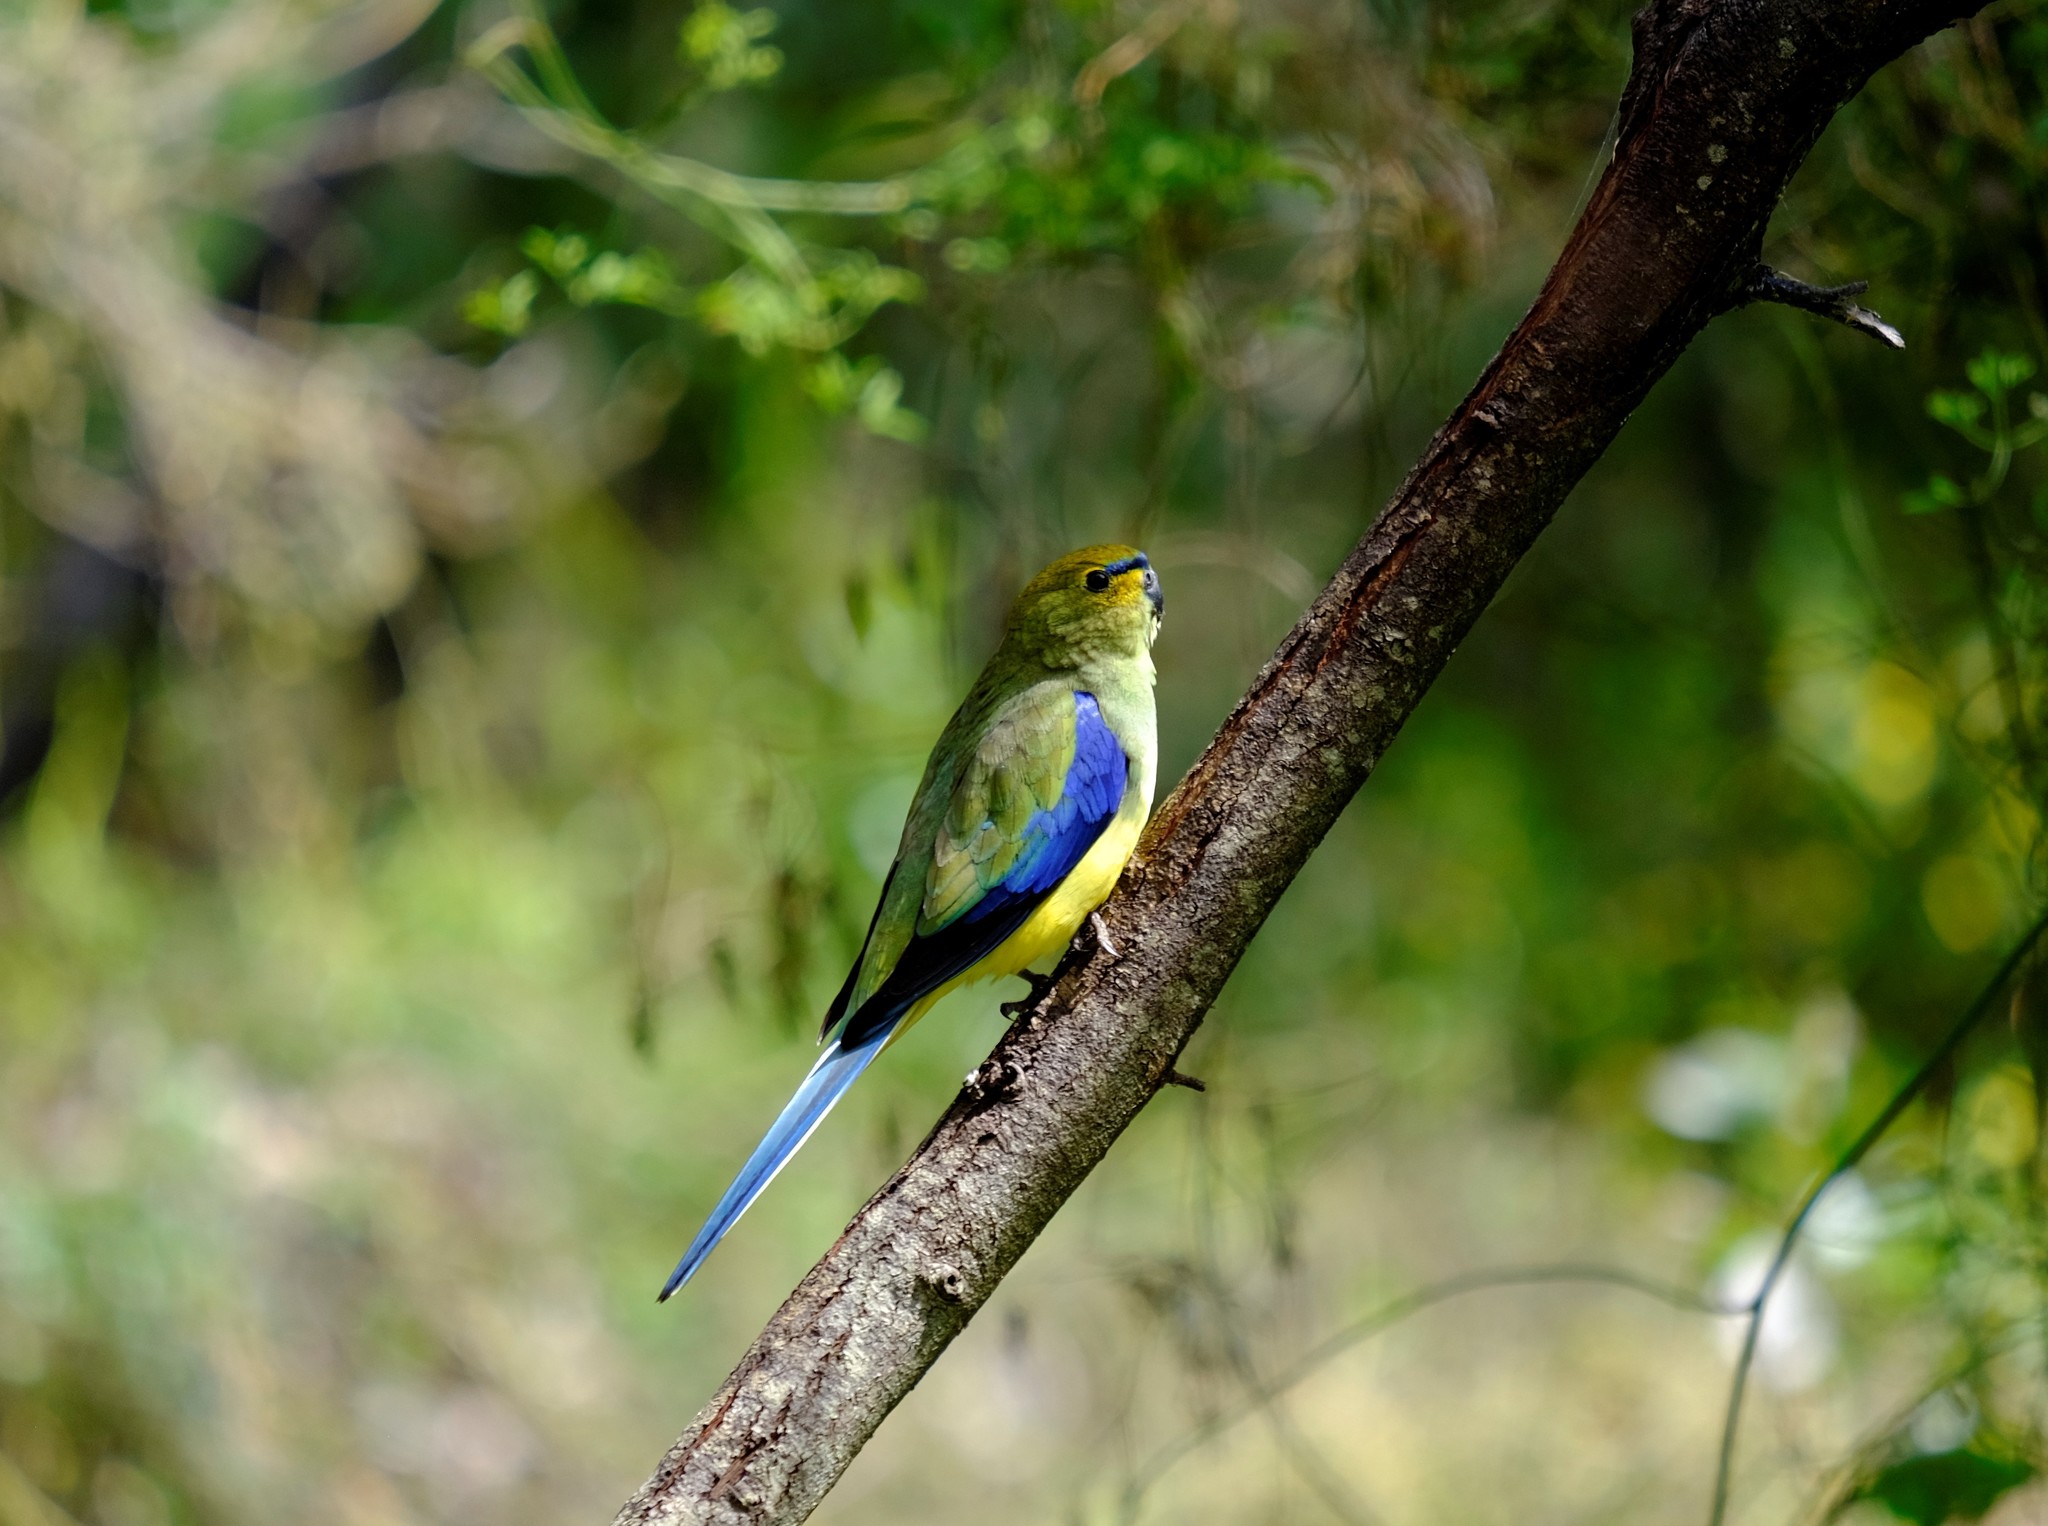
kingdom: Animalia
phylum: Chordata
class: Aves
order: Psittaciformes
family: Psittacidae
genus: Neophema
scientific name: Neophema chrysostoma
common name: Blue-winged parrot
